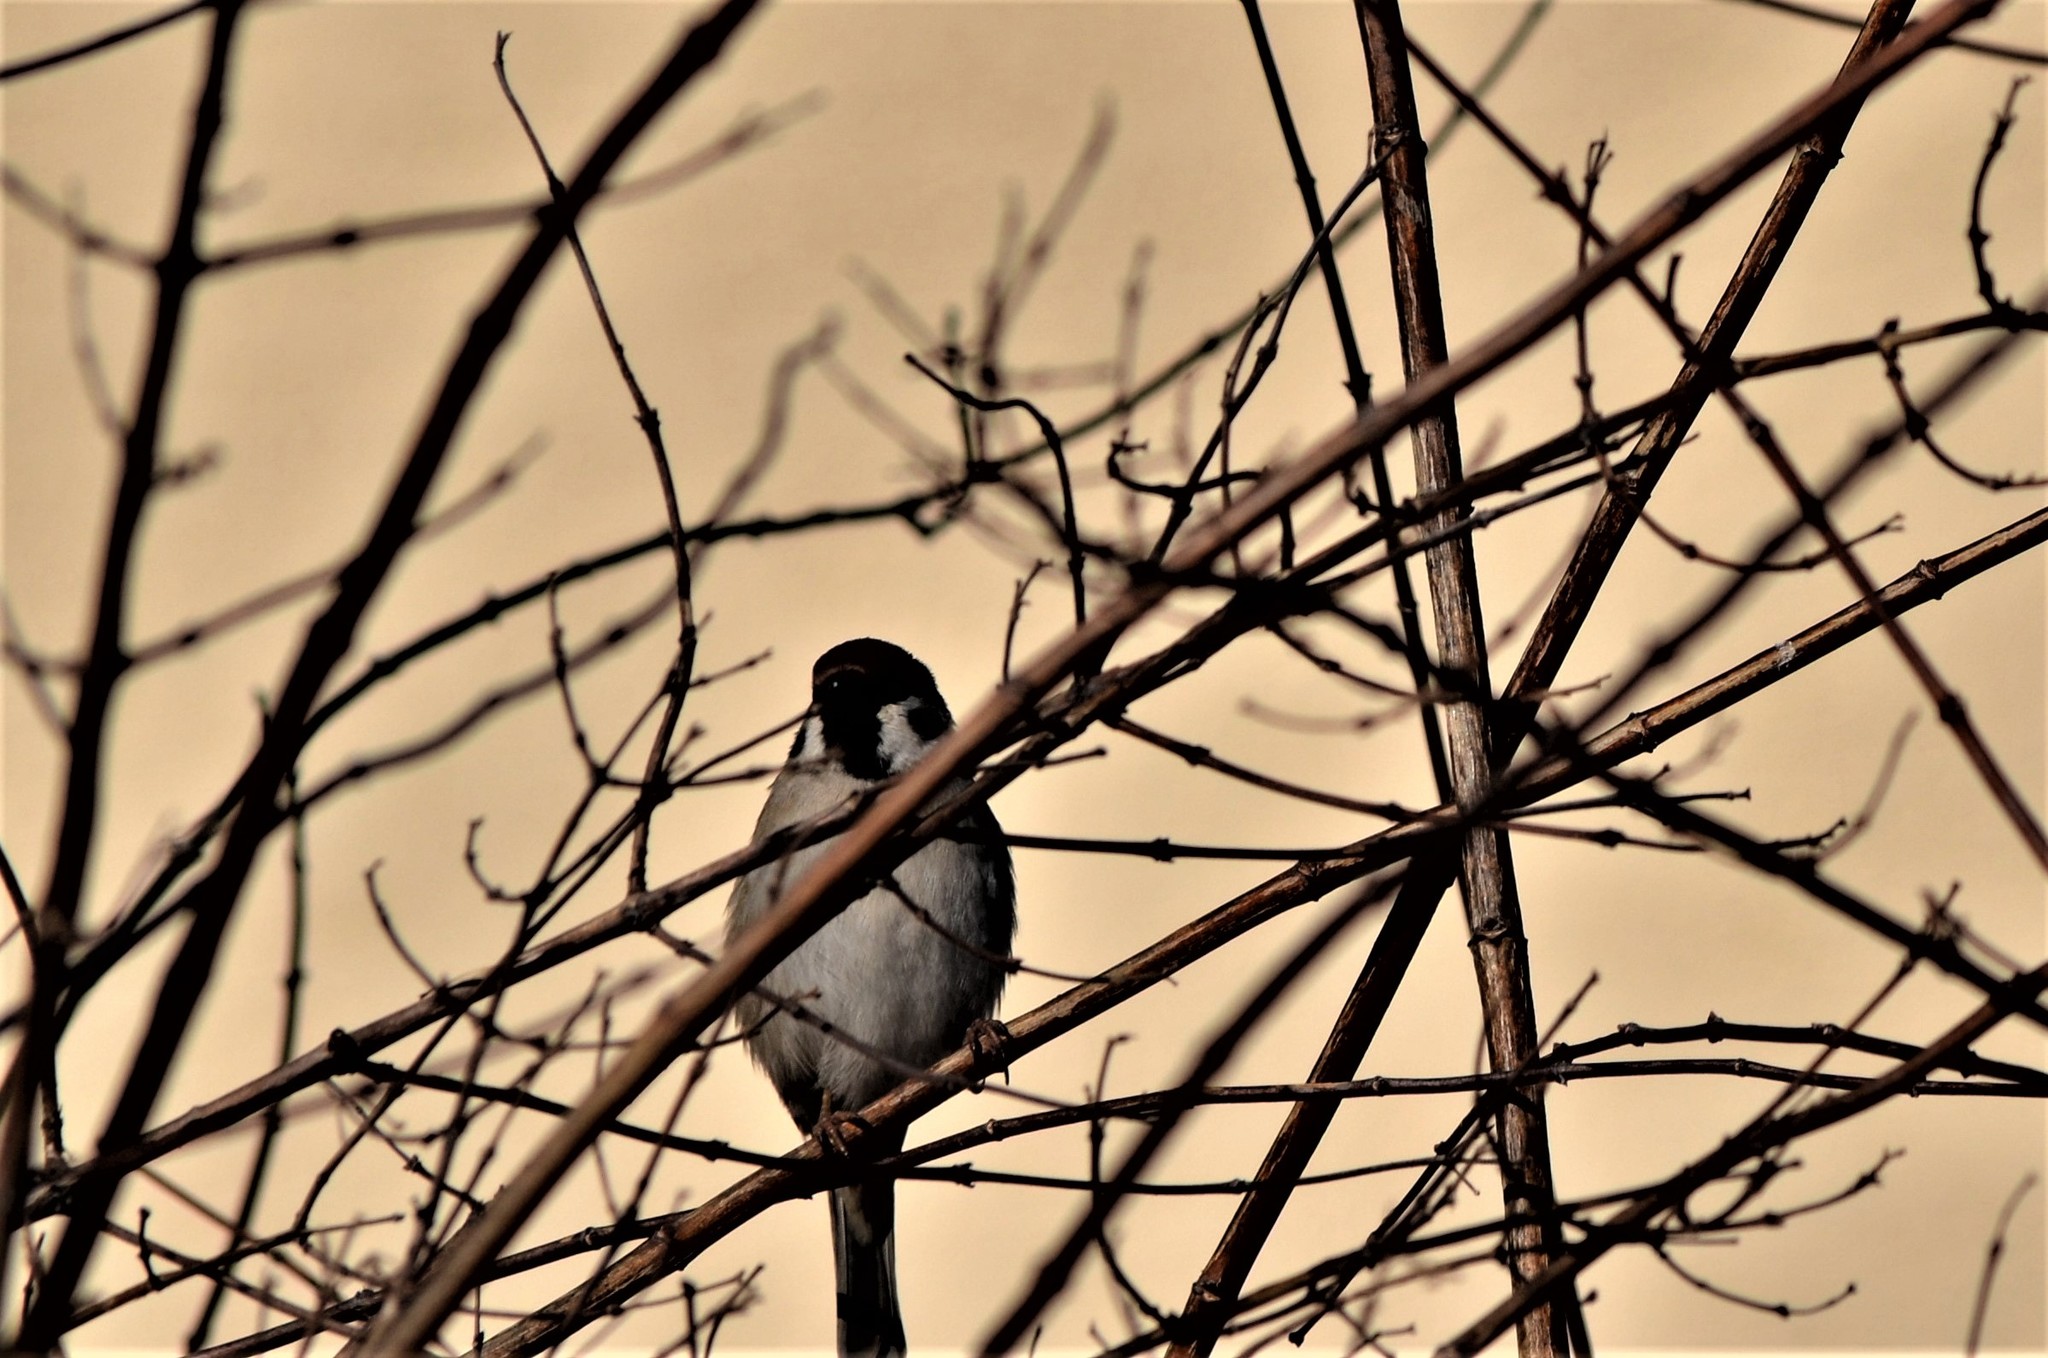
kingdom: Animalia
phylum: Chordata
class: Aves
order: Passeriformes
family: Passeridae
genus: Passer
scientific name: Passer montanus
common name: Eurasian tree sparrow
